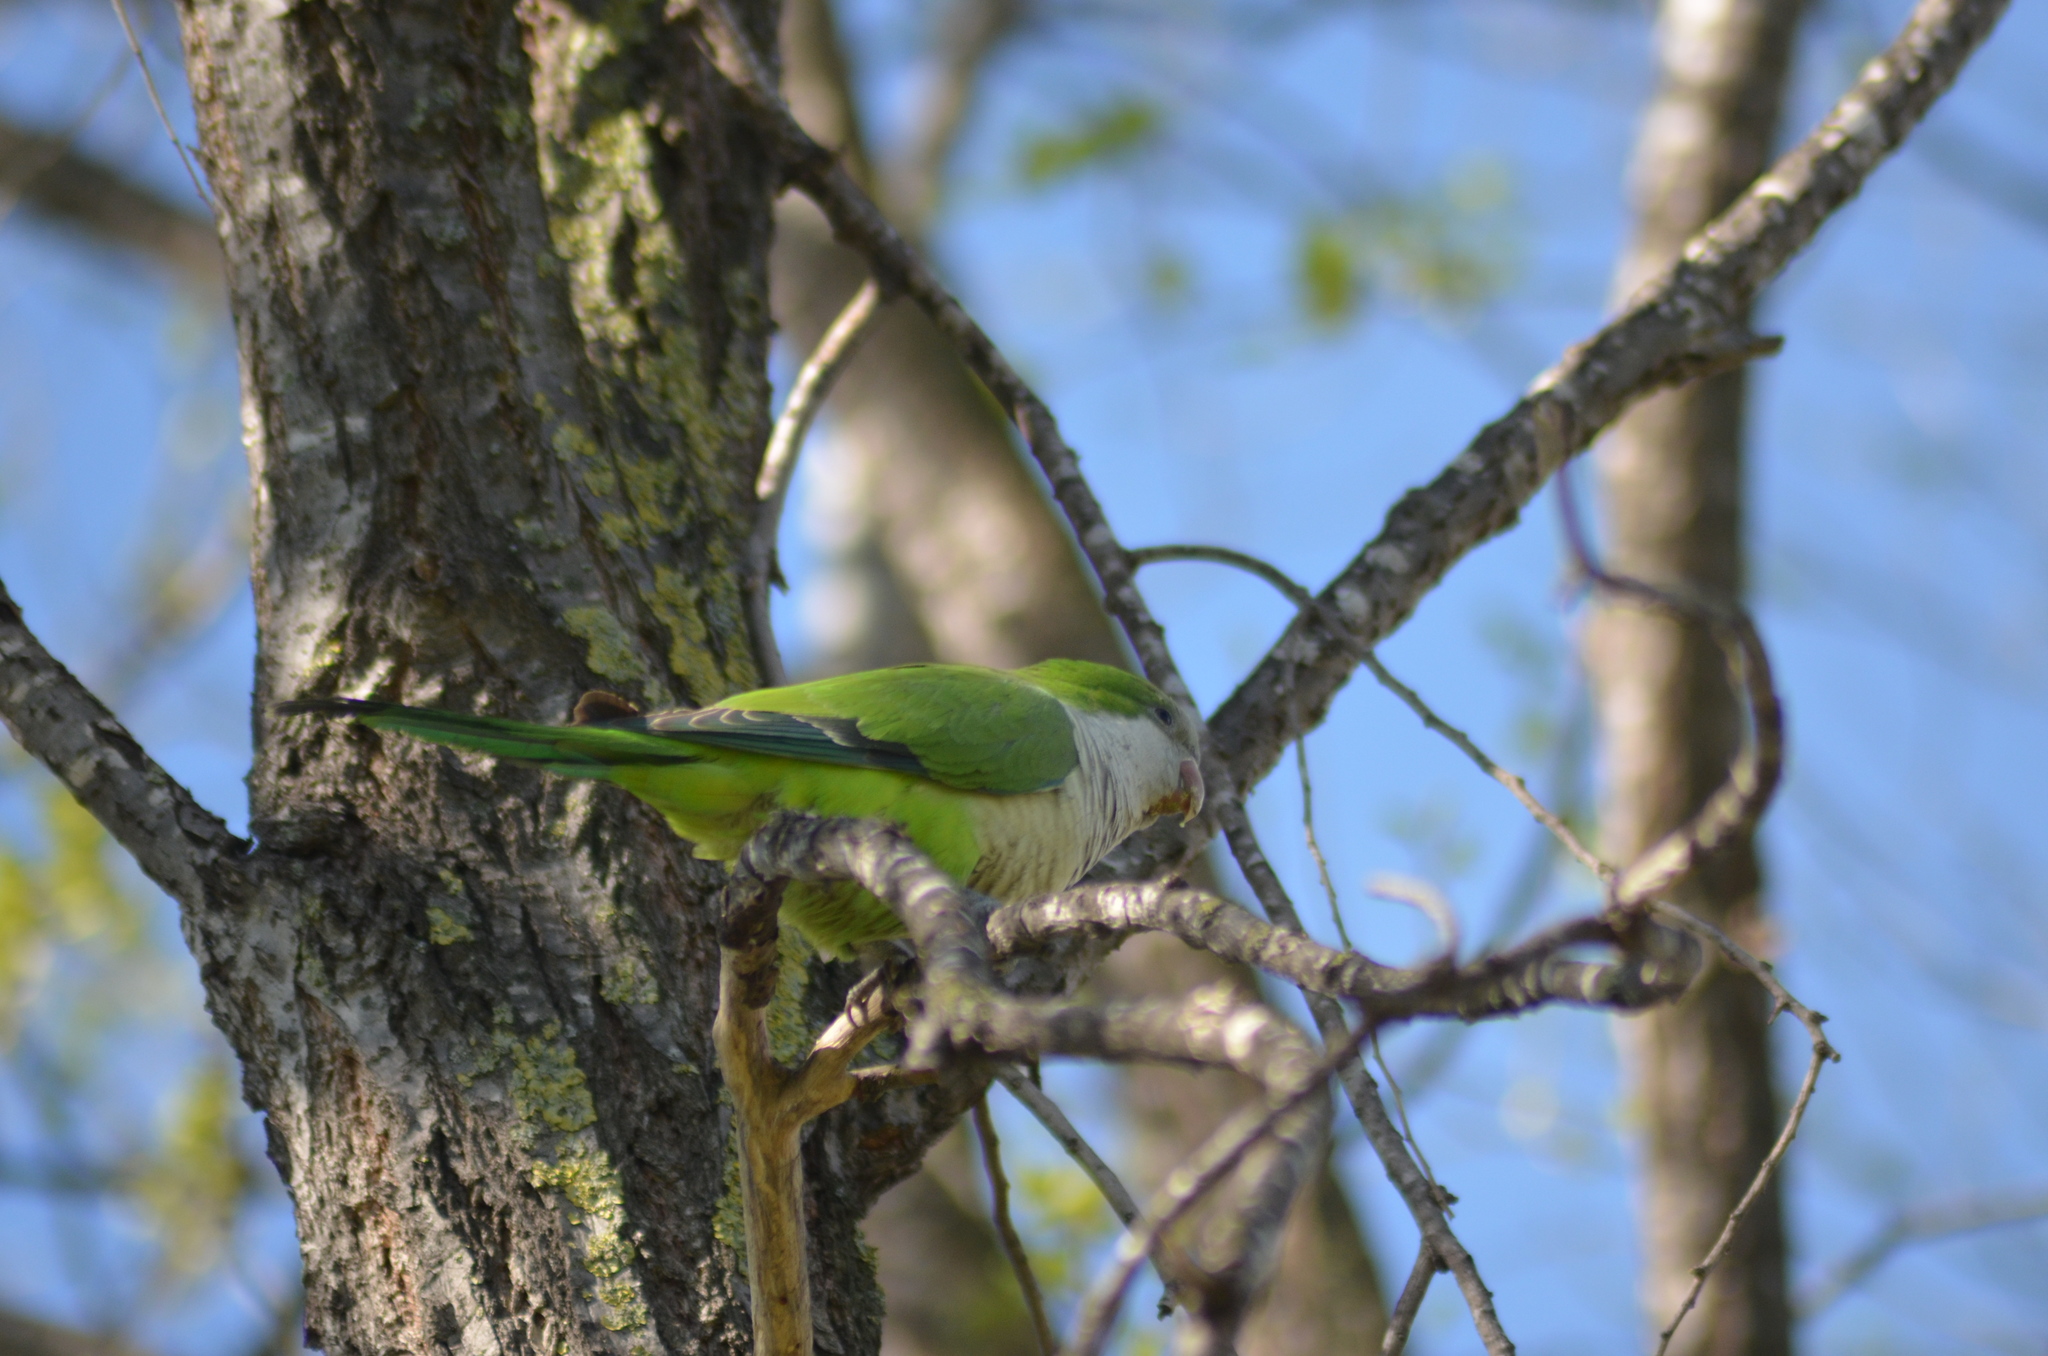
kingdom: Animalia
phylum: Chordata
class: Aves
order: Psittaciformes
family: Psittacidae
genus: Myiopsitta
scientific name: Myiopsitta monachus
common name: Monk parakeet
